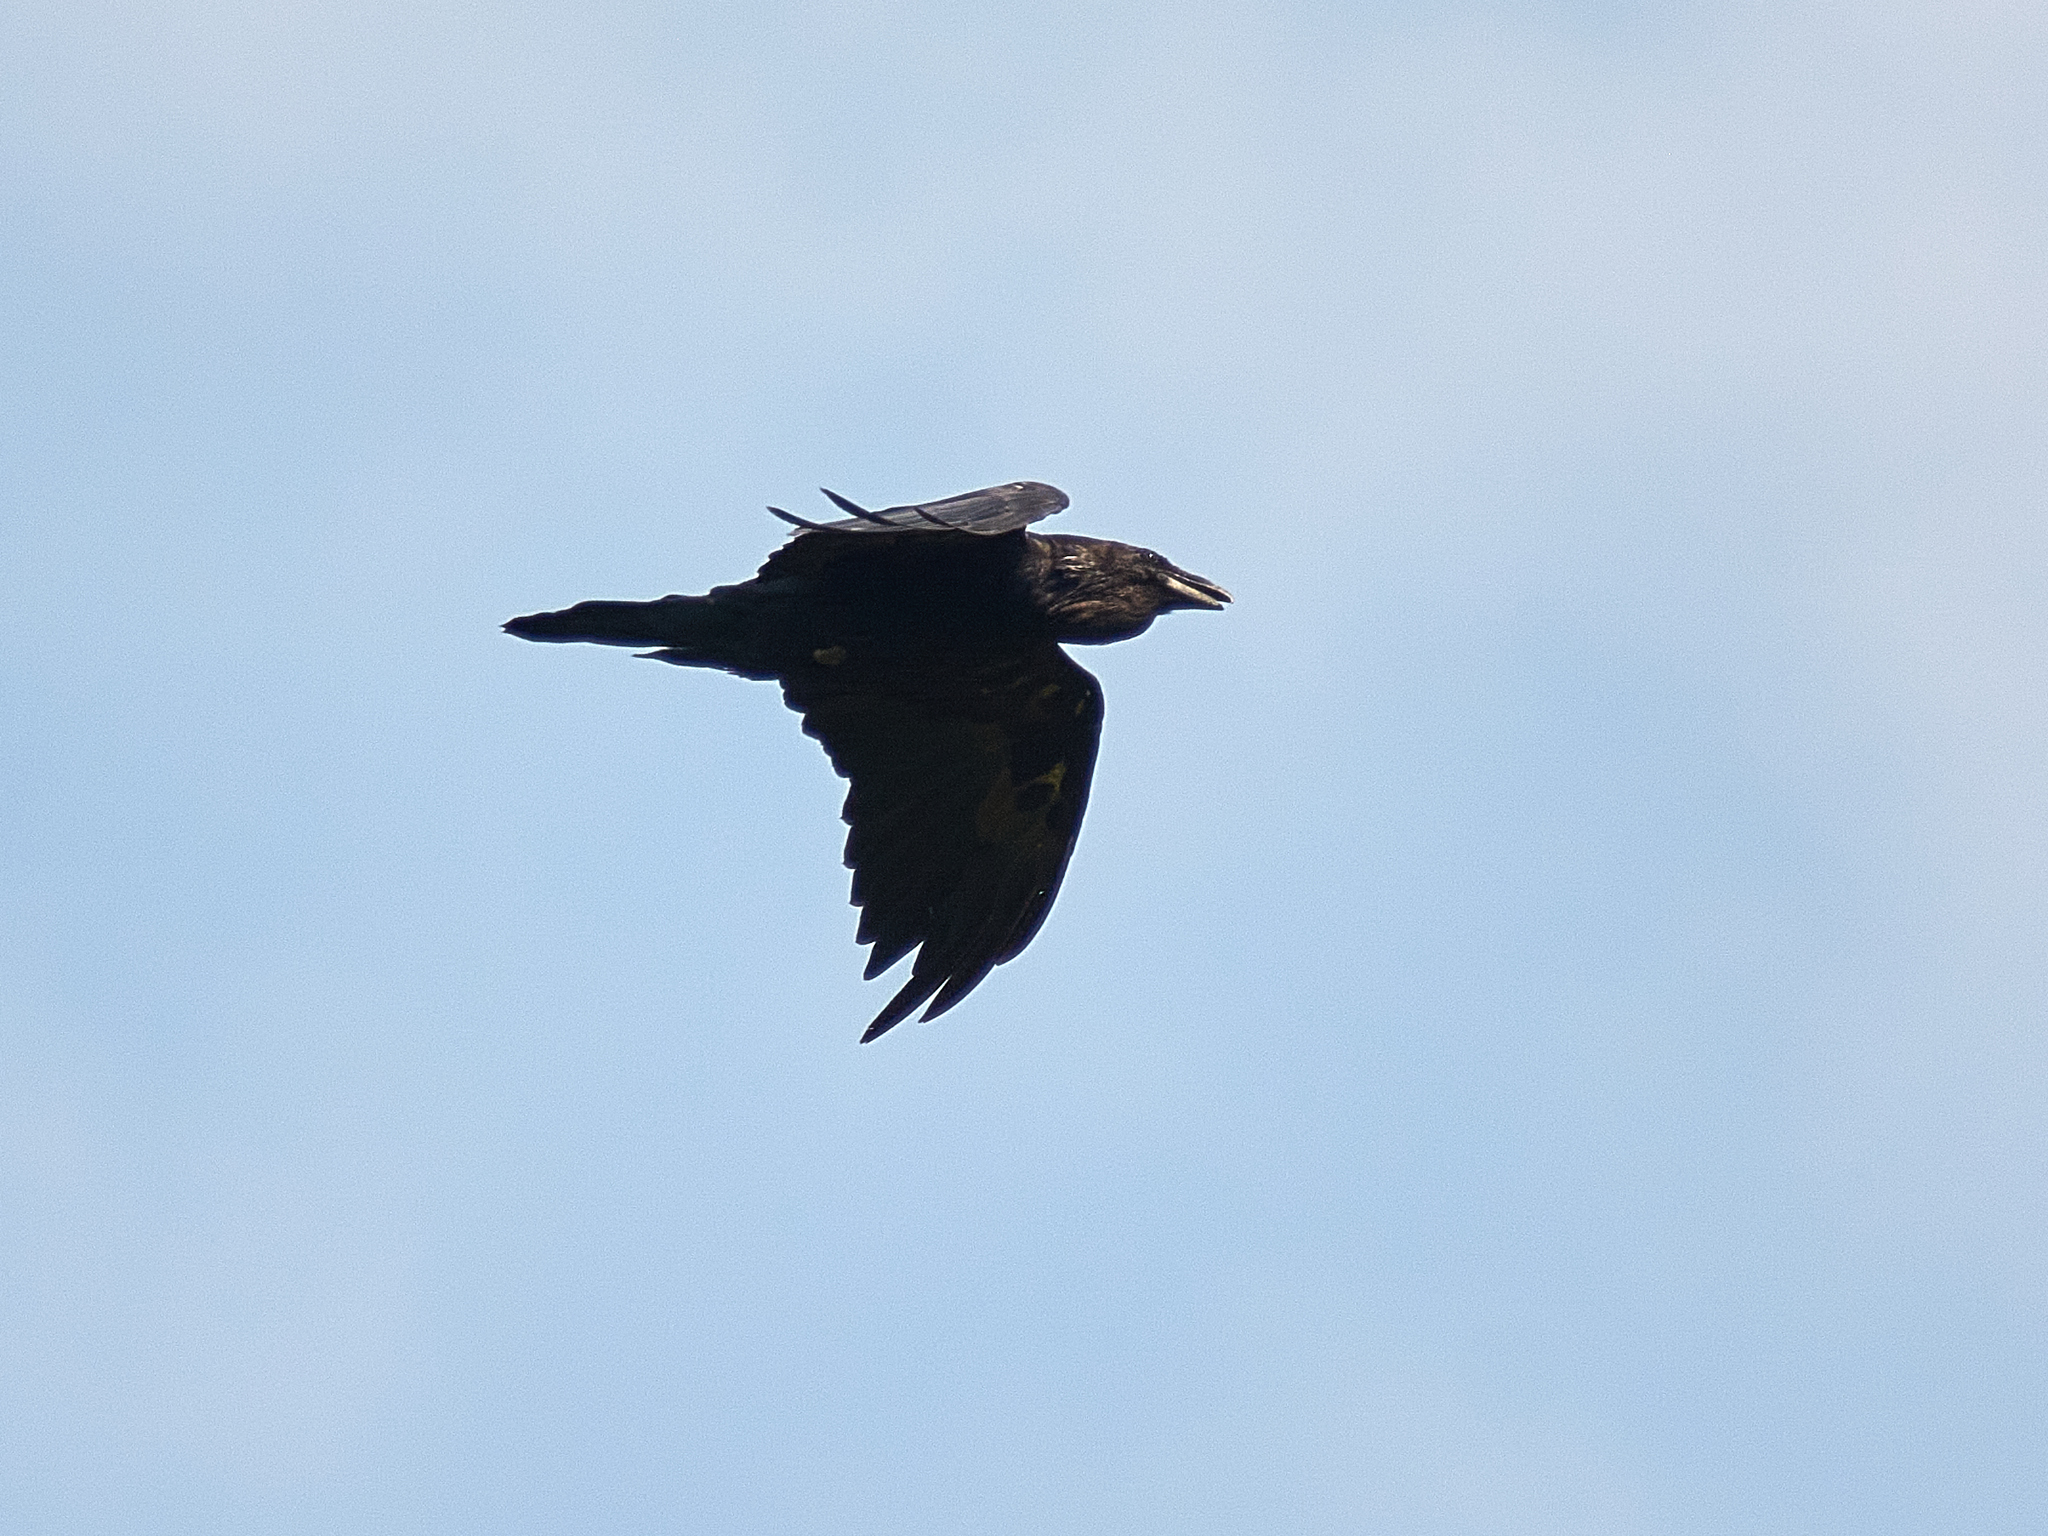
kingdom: Animalia
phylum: Chordata
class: Aves
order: Passeriformes
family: Corvidae
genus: Corvus
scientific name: Corvus corax
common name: Common raven
